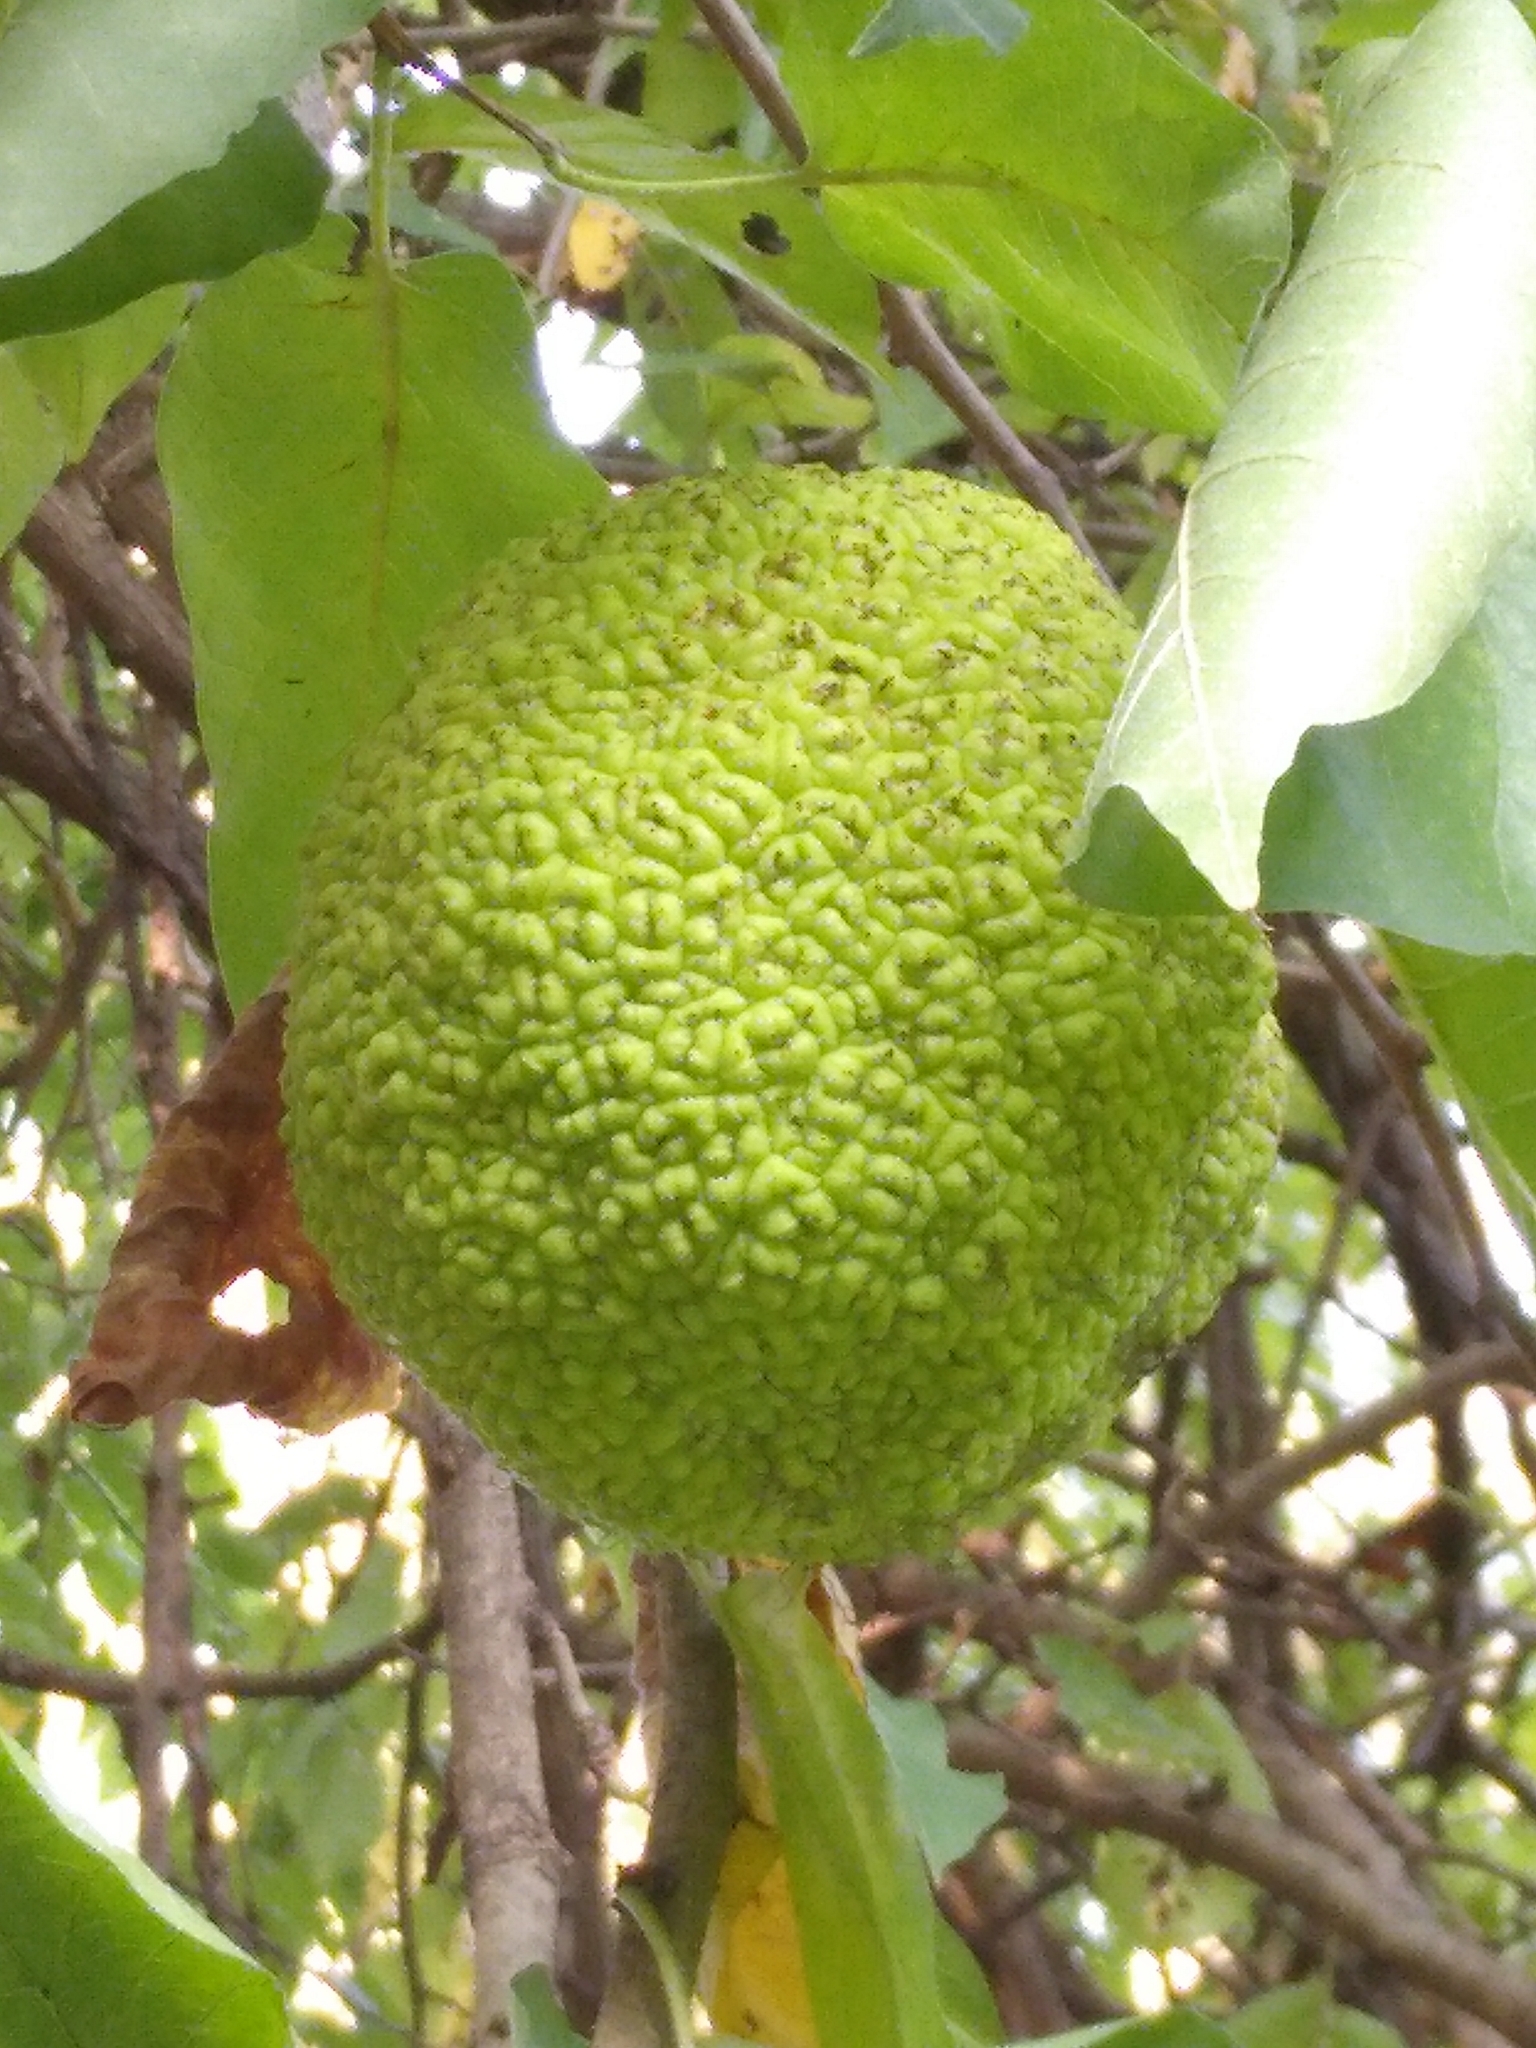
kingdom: Plantae
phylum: Tracheophyta
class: Magnoliopsida
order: Rosales
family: Moraceae
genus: Maclura
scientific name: Maclura pomifera
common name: Osage-orange
